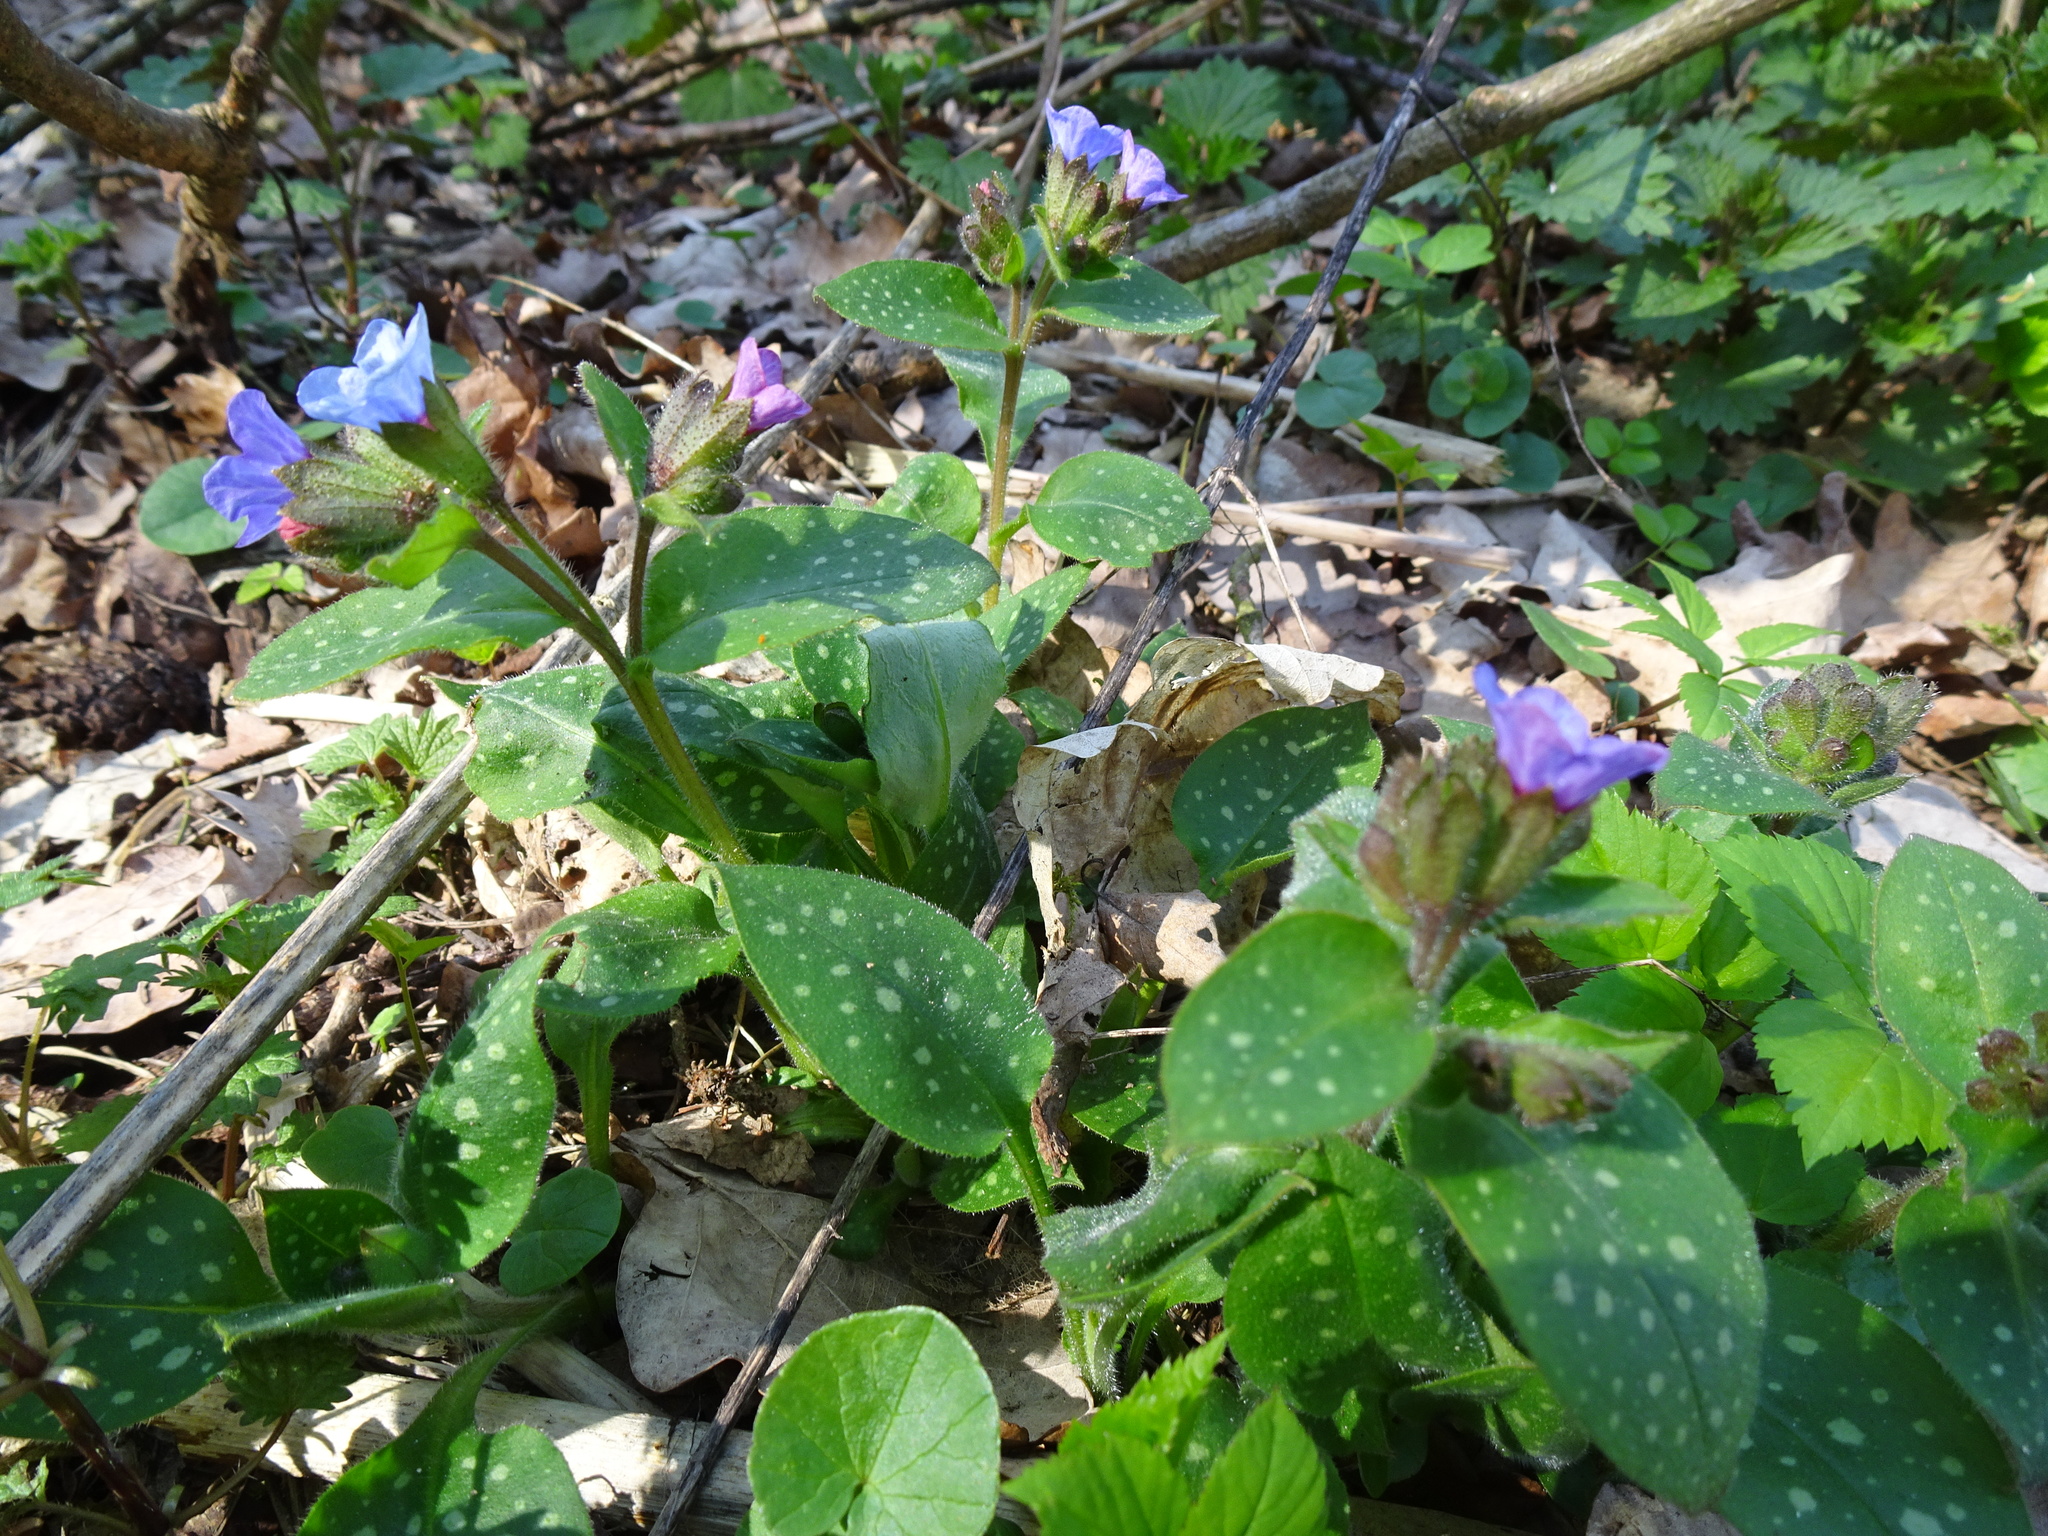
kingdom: Plantae
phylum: Tracheophyta
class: Magnoliopsida
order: Boraginales
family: Boraginaceae
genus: Pulmonaria
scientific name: Pulmonaria officinalis
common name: Lungwort
